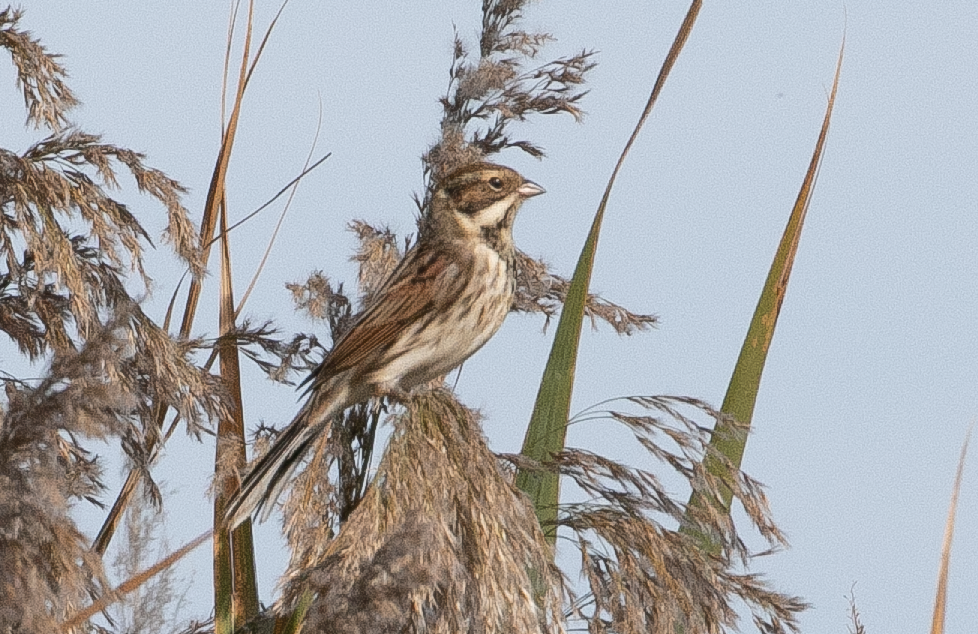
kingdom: Animalia
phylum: Chordata
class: Aves
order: Passeriformes
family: Emberizidae
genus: Emberiza
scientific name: Emberiza schoeniclus
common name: Reed bunting
